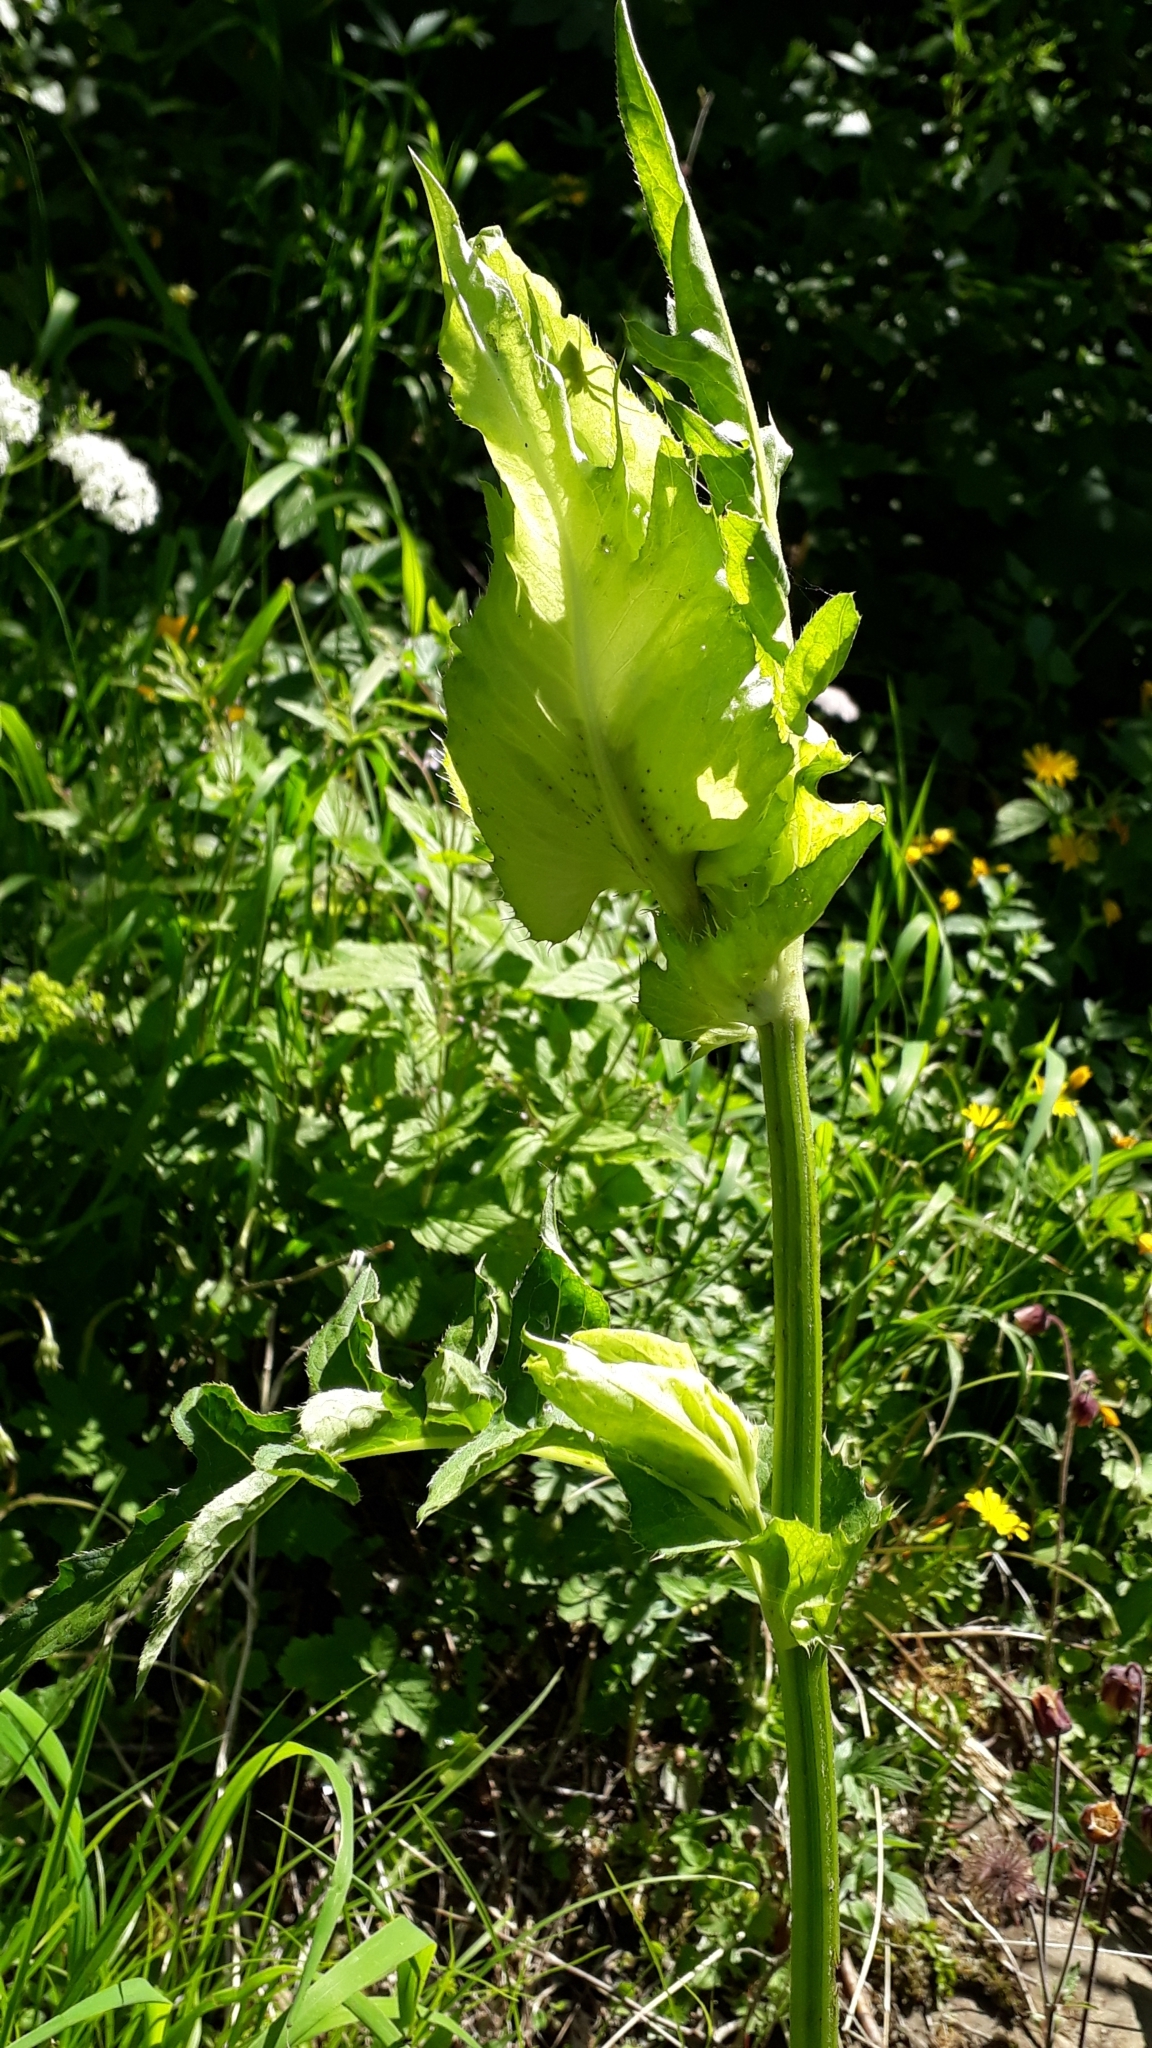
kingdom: Plantae
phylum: Tracheophyta
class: Magnoliopsida
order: Asterales
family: Asteraceae
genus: Cirsium
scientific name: Cirsium oleraceum
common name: Cabbage thistle
